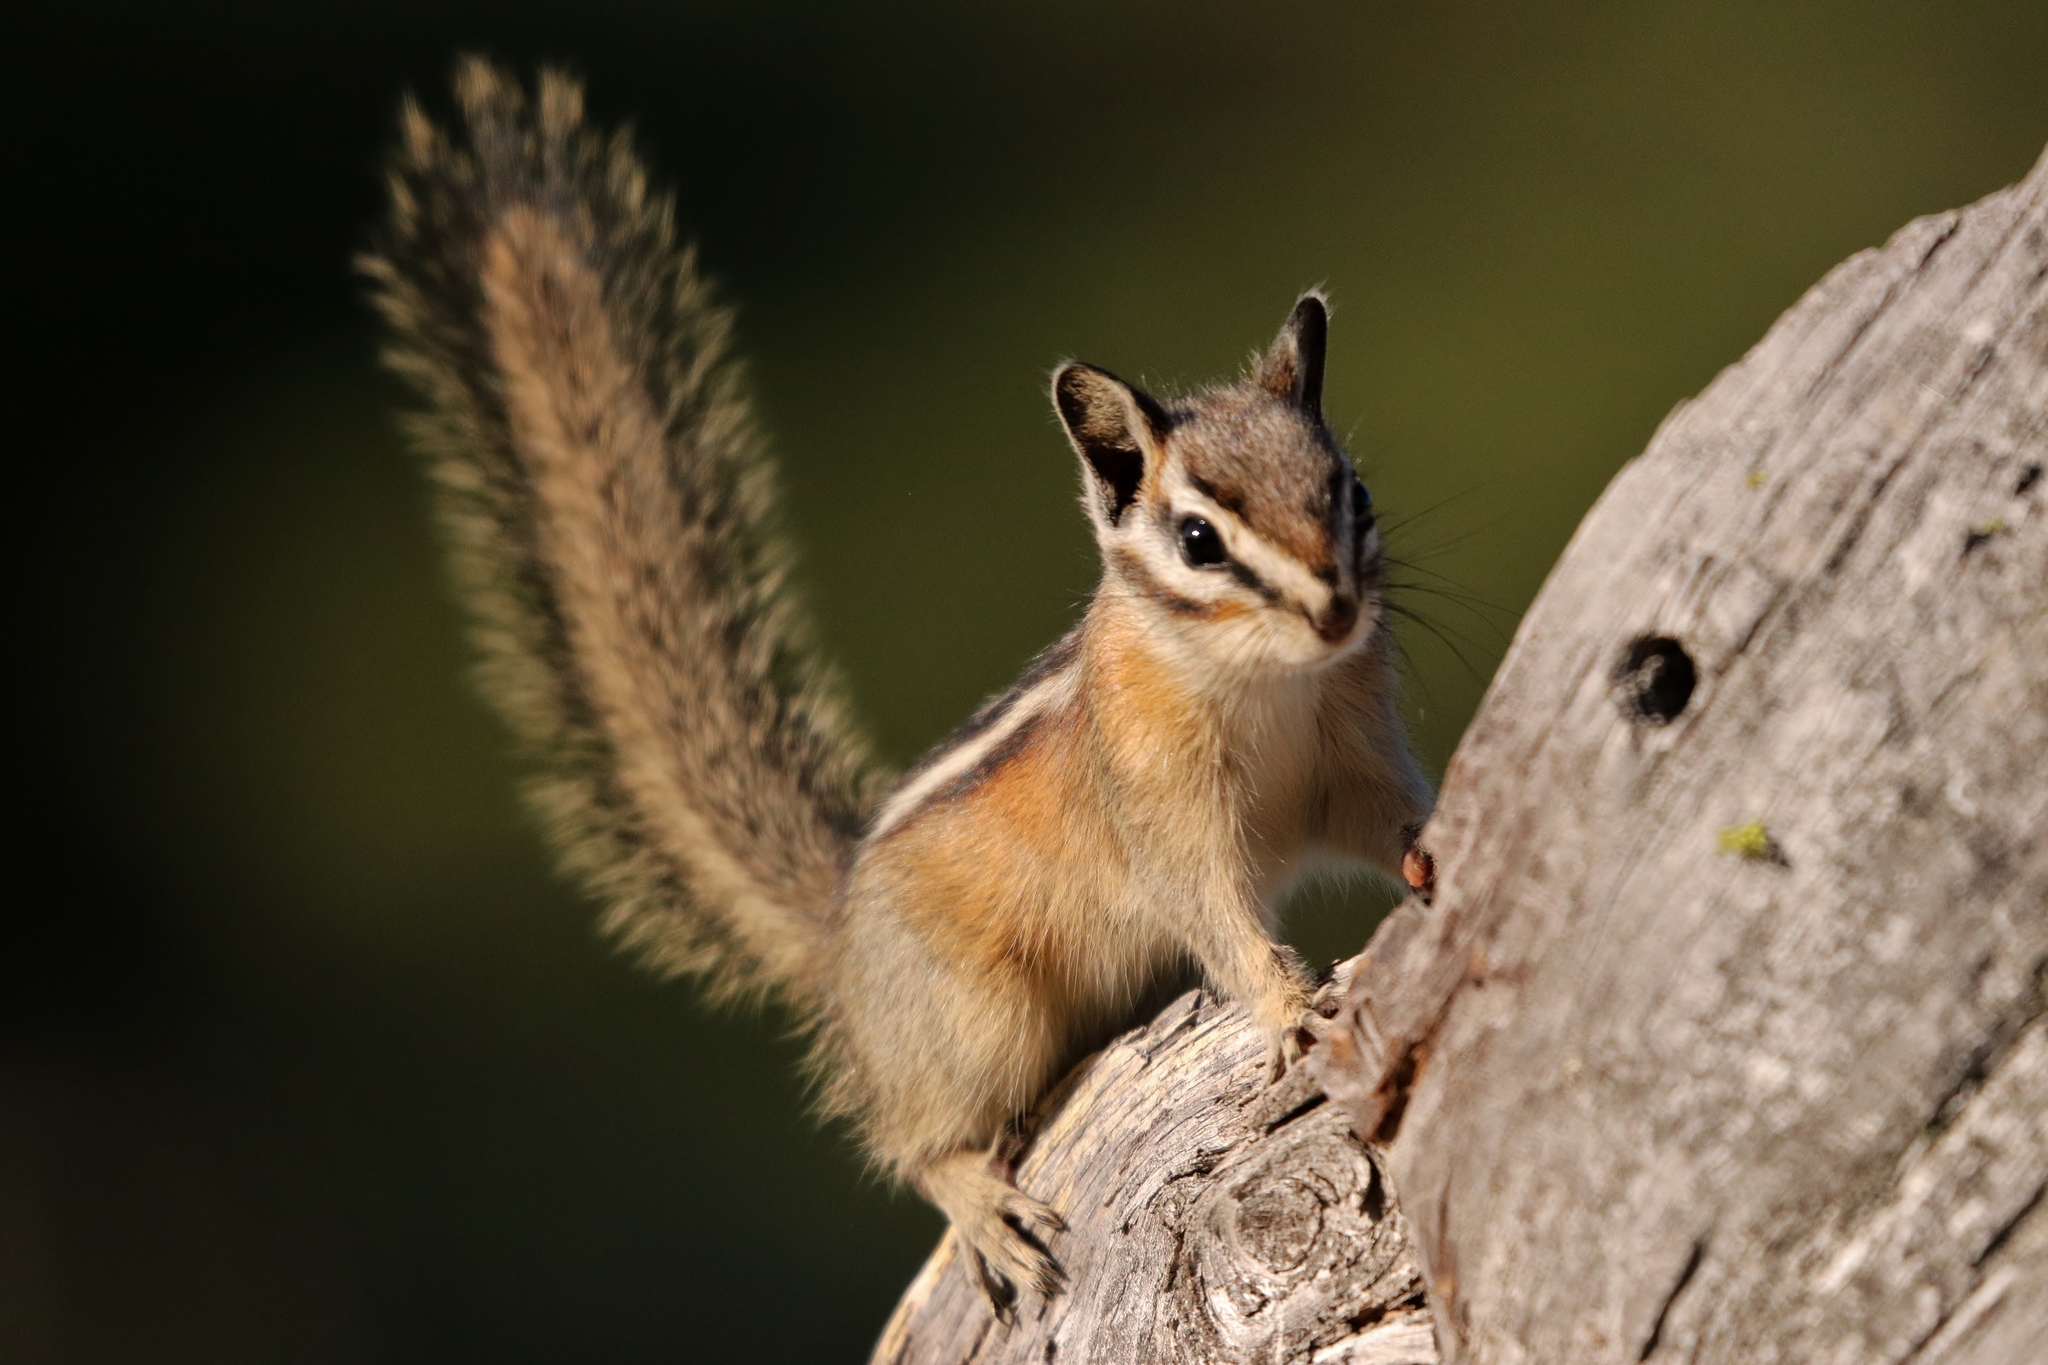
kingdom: Animalia
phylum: Chordata
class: Mammalia
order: Rodentia
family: Sciuridae
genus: Tamias
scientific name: Tamias amoenus
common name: Yellow-pine chipmunk
